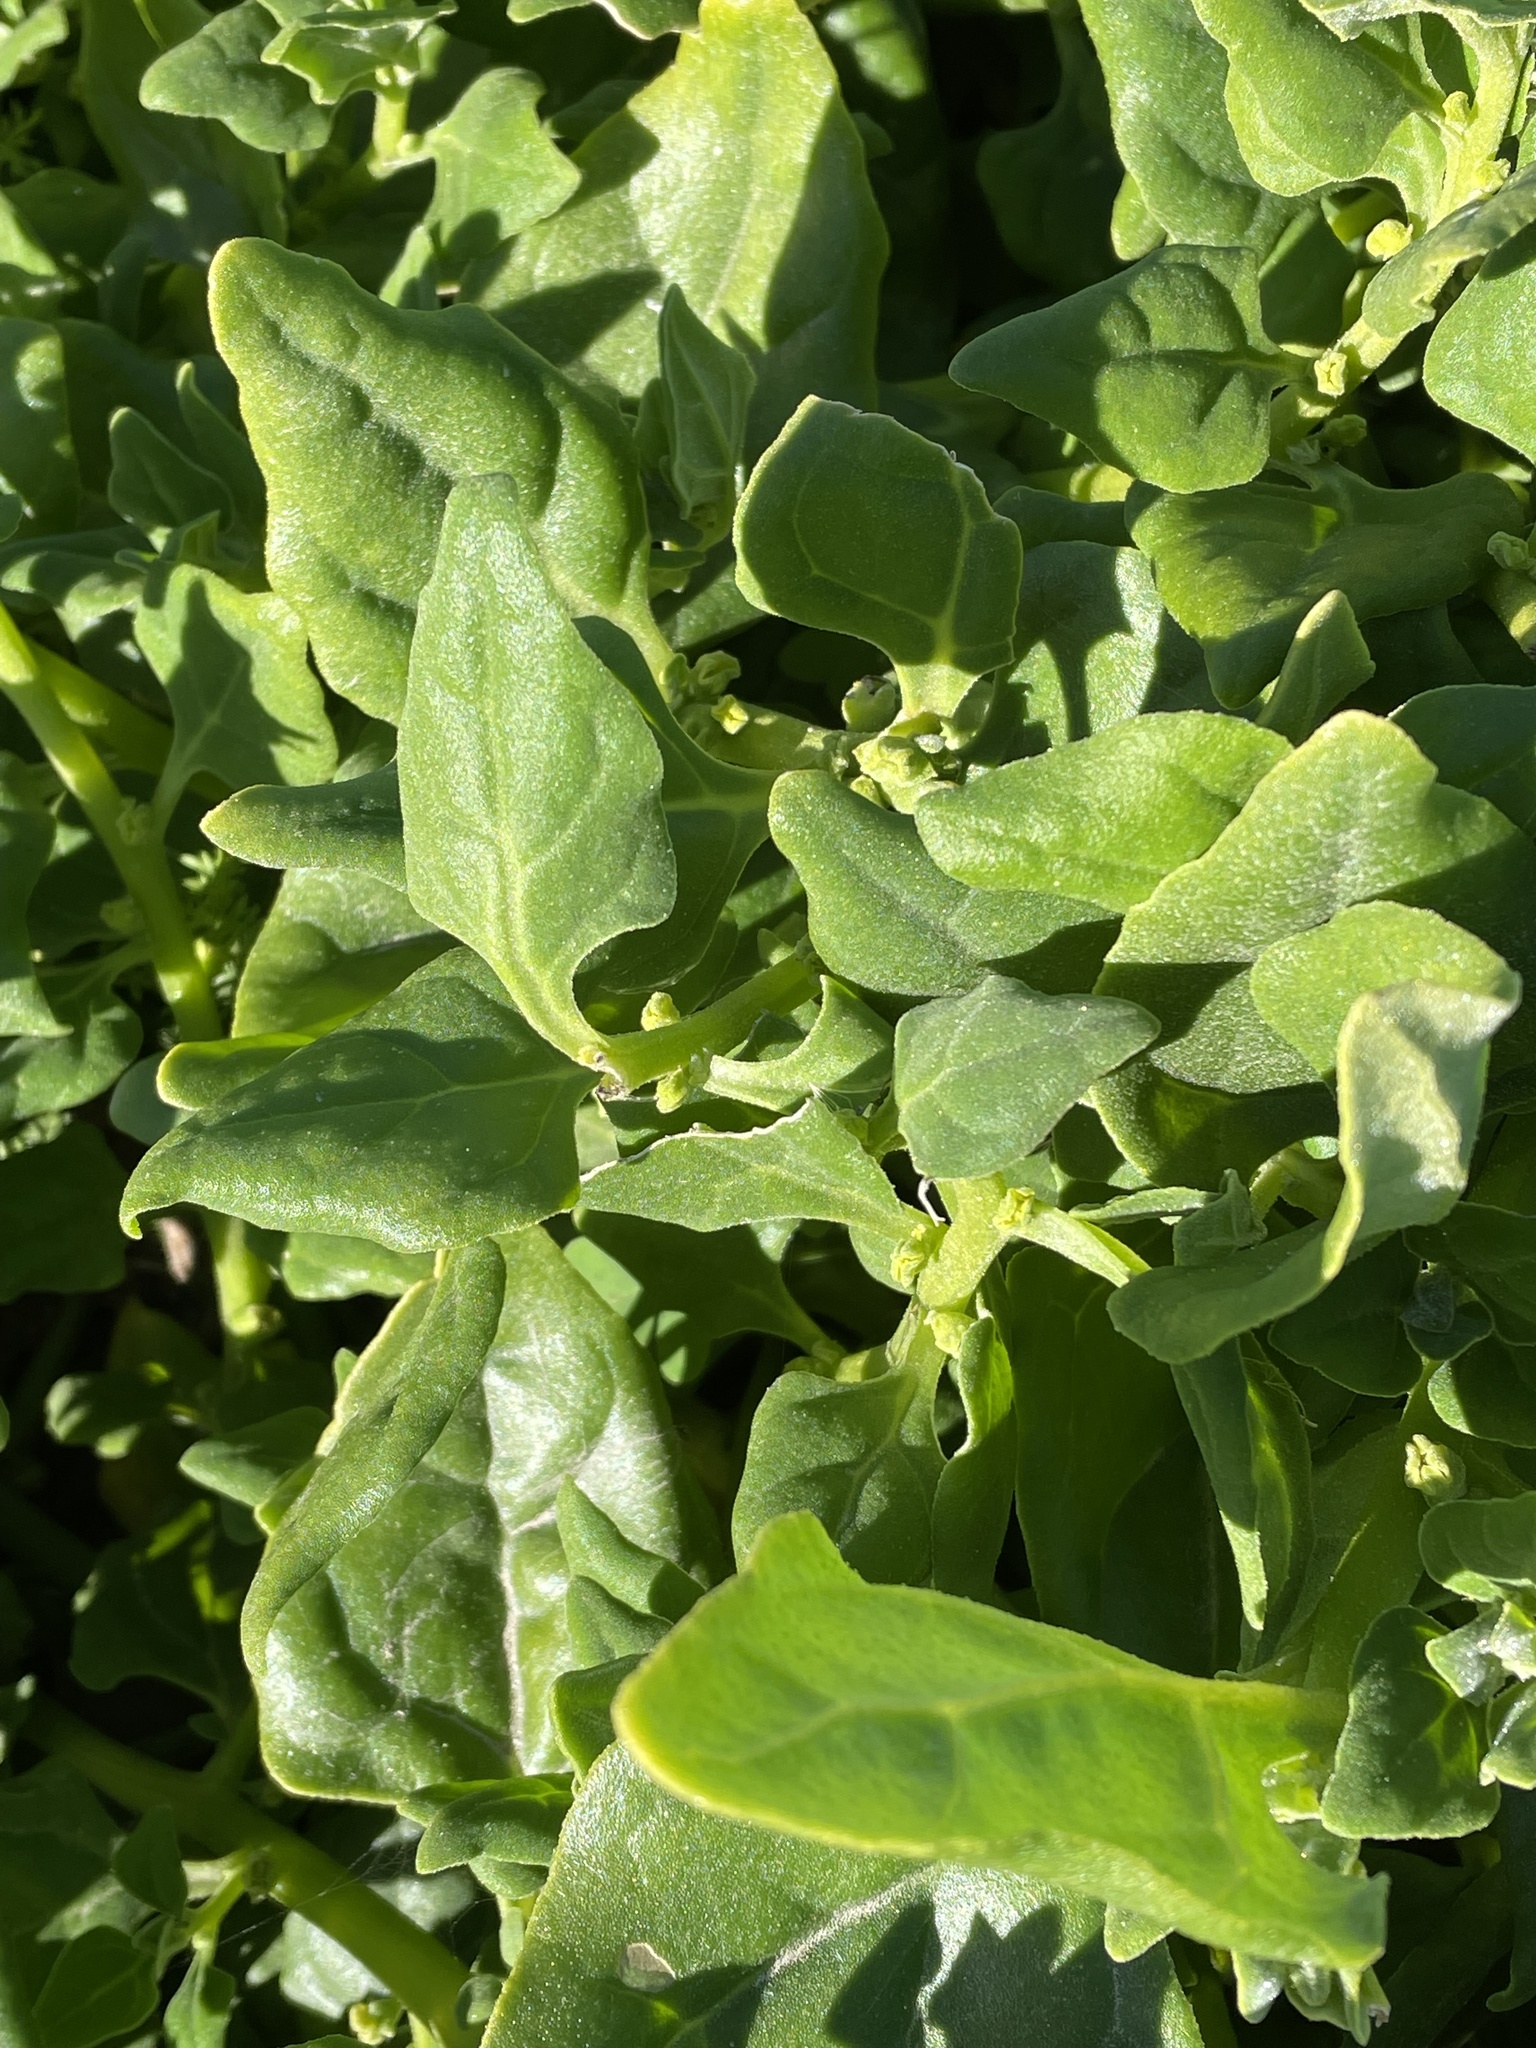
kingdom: Plantae
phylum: Tracheophyta
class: Magnoliopsida
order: Caryophyllales
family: Aizoaceae
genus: Tetragonia
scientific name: Tetragonia tetragonoides
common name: New zealand-spinach
